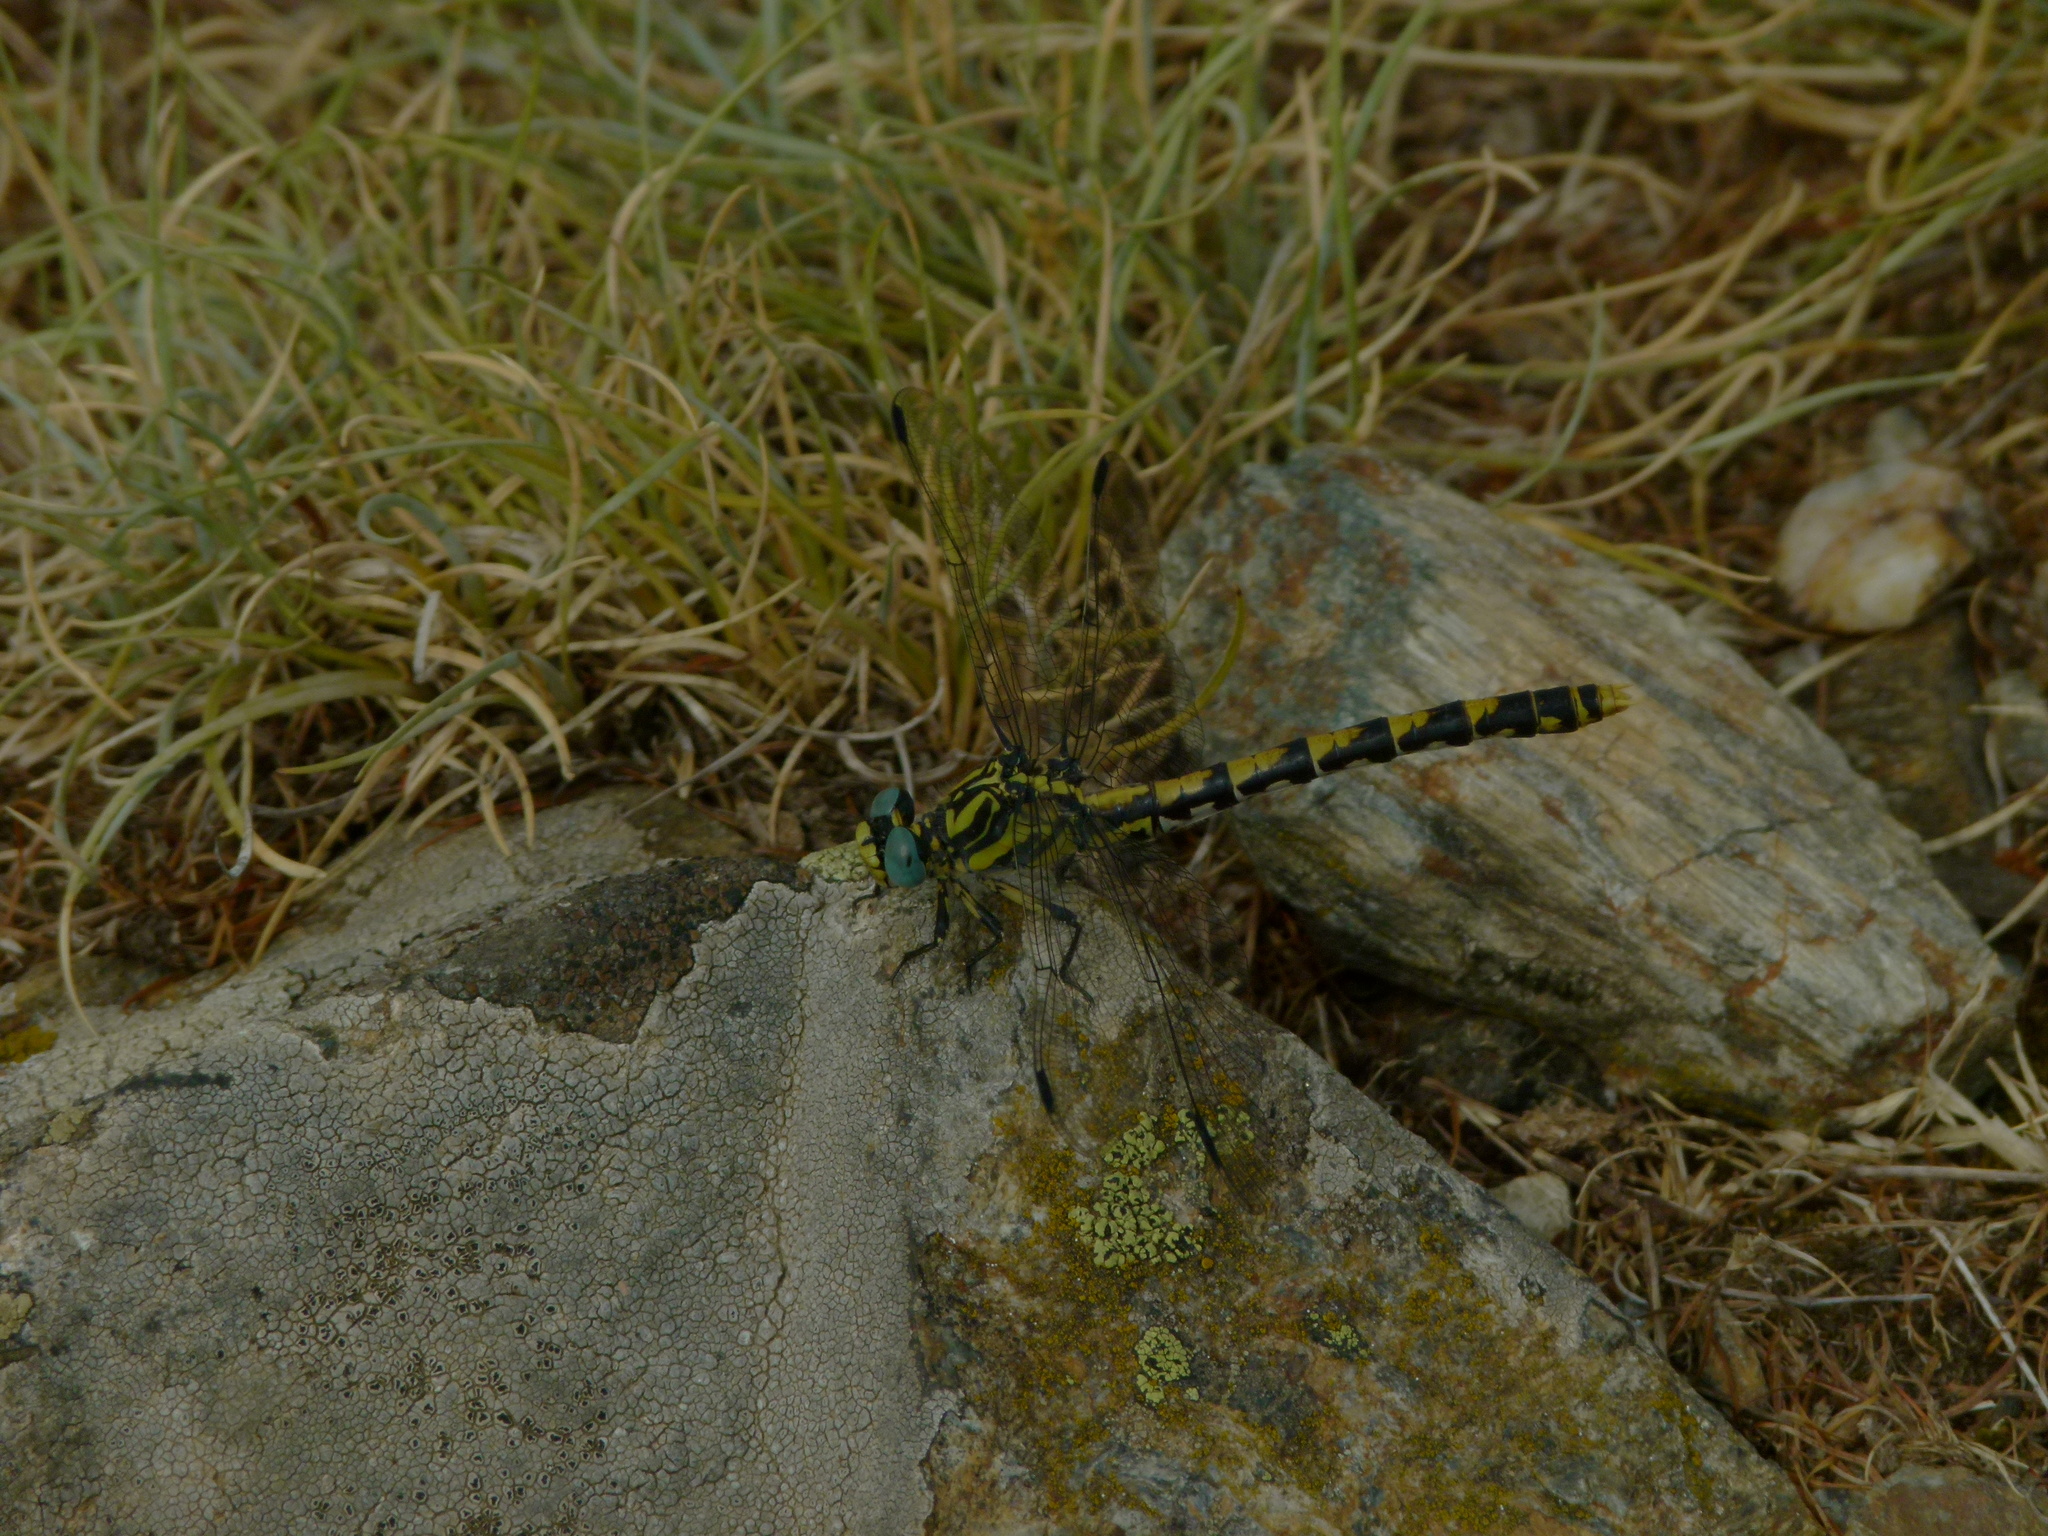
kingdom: Animalia
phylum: Arthropoda
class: Insecta
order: Odonata
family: Gomphidae
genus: Onychogomphus
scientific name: Onychogomphus uncatus
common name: Large pincertail
